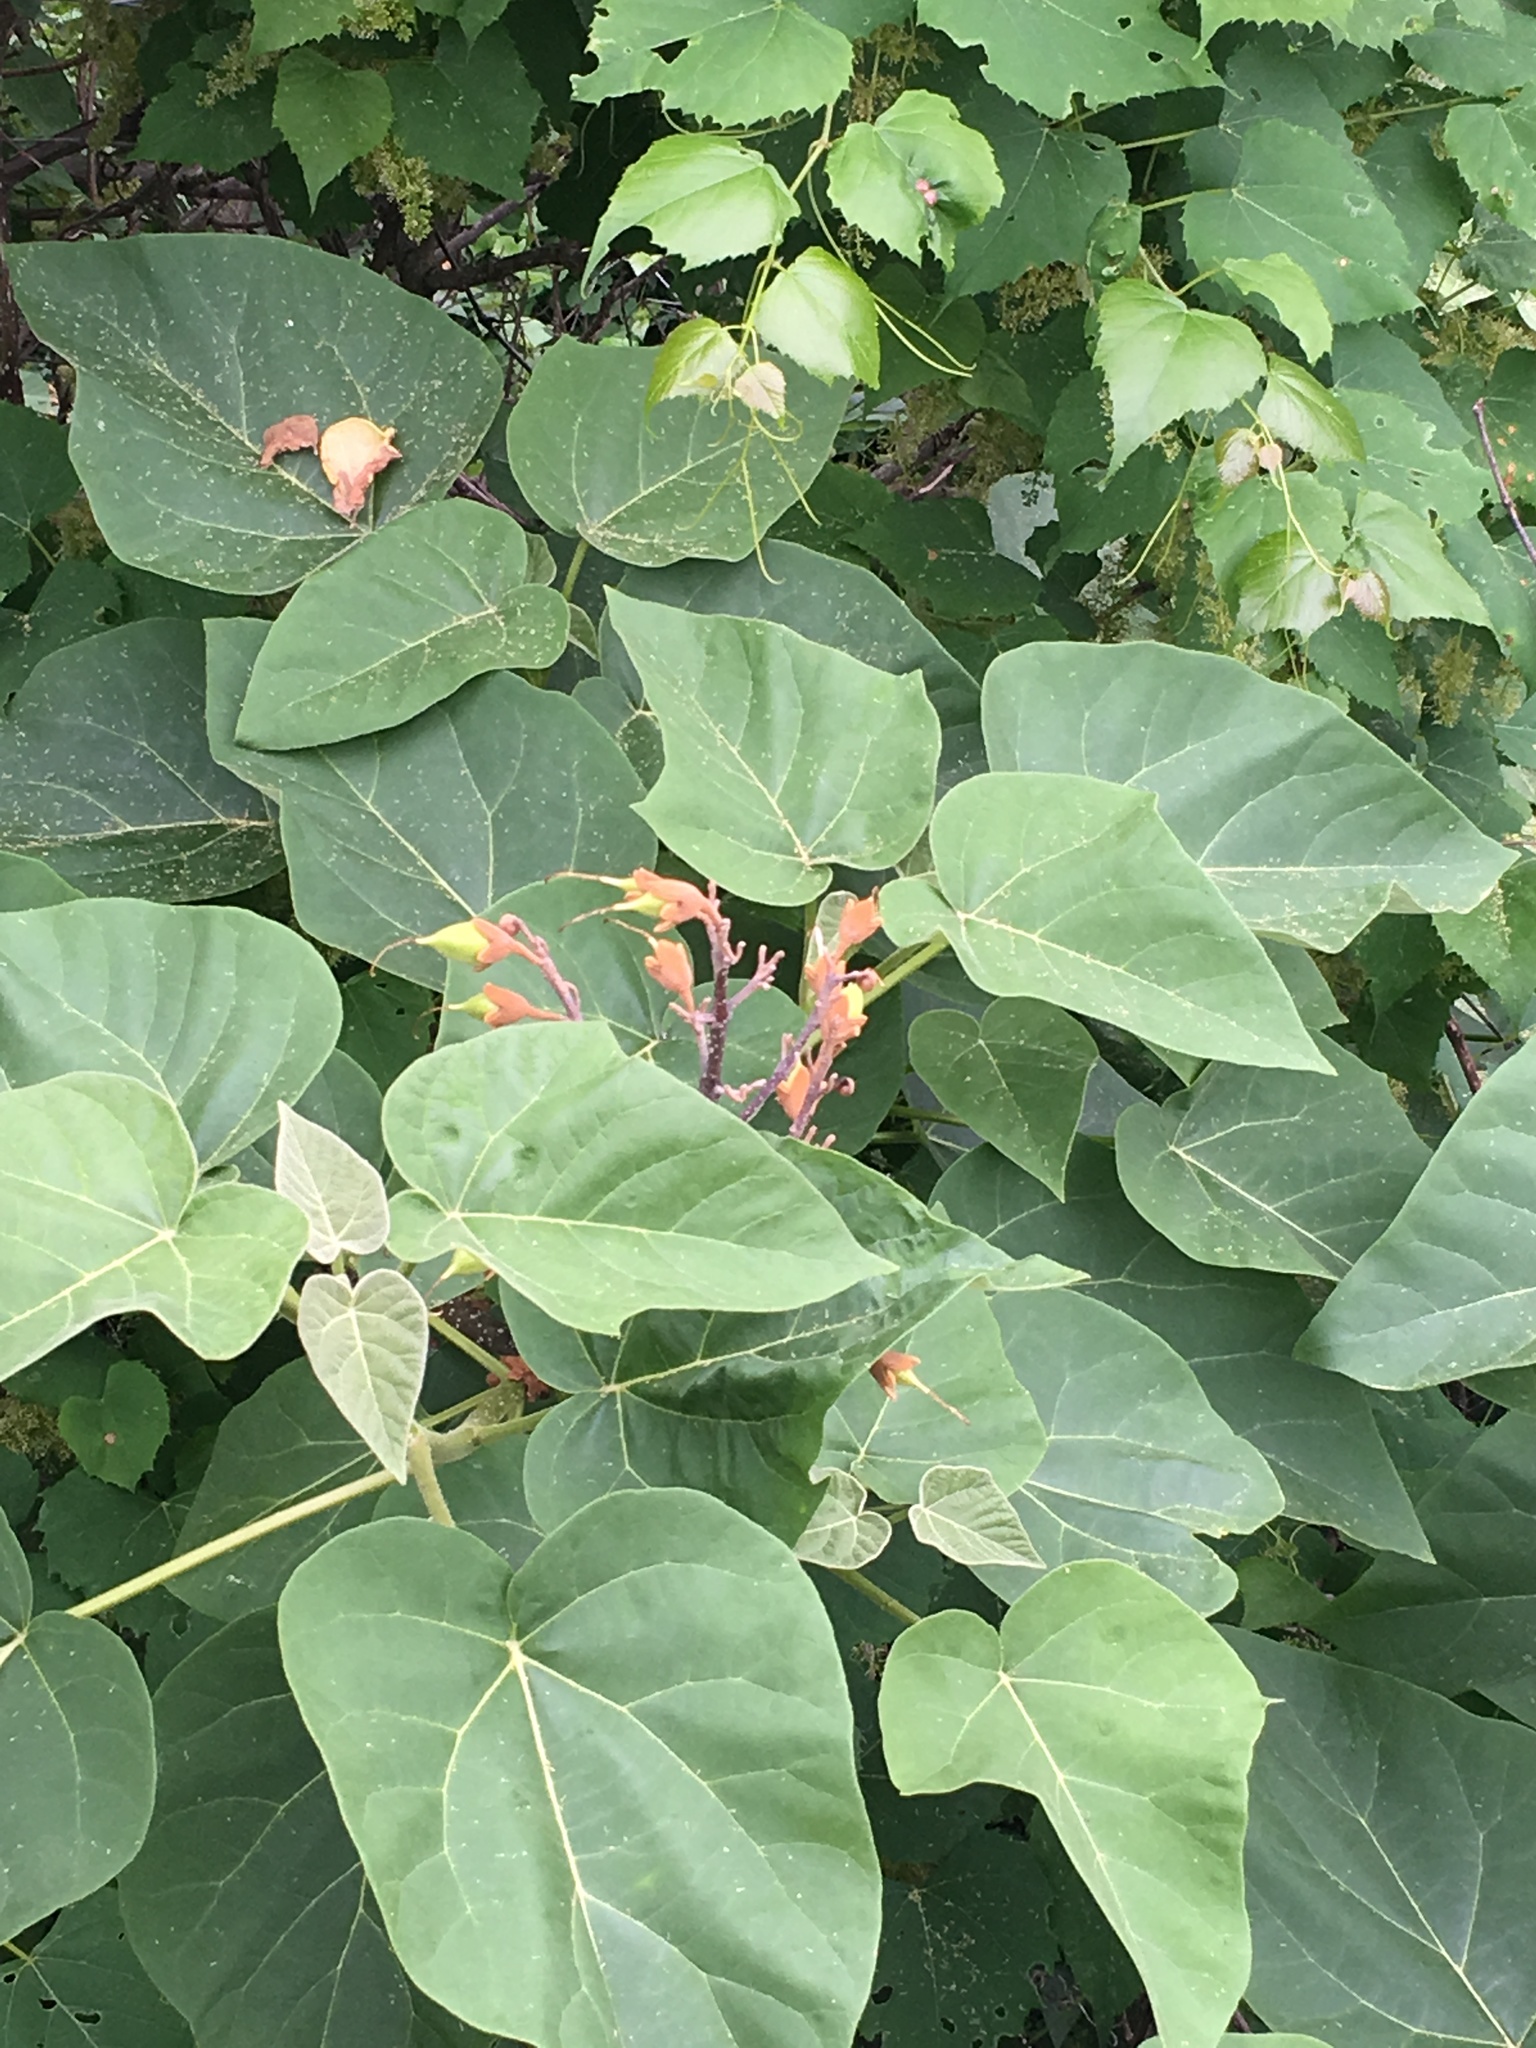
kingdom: Plantae
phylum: Tracheophyta
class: Magnoliopsida
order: Lamiales
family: Paulowniaceae
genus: Paulownia
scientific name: Paulownia tomentosa
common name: Foxglove-tree
